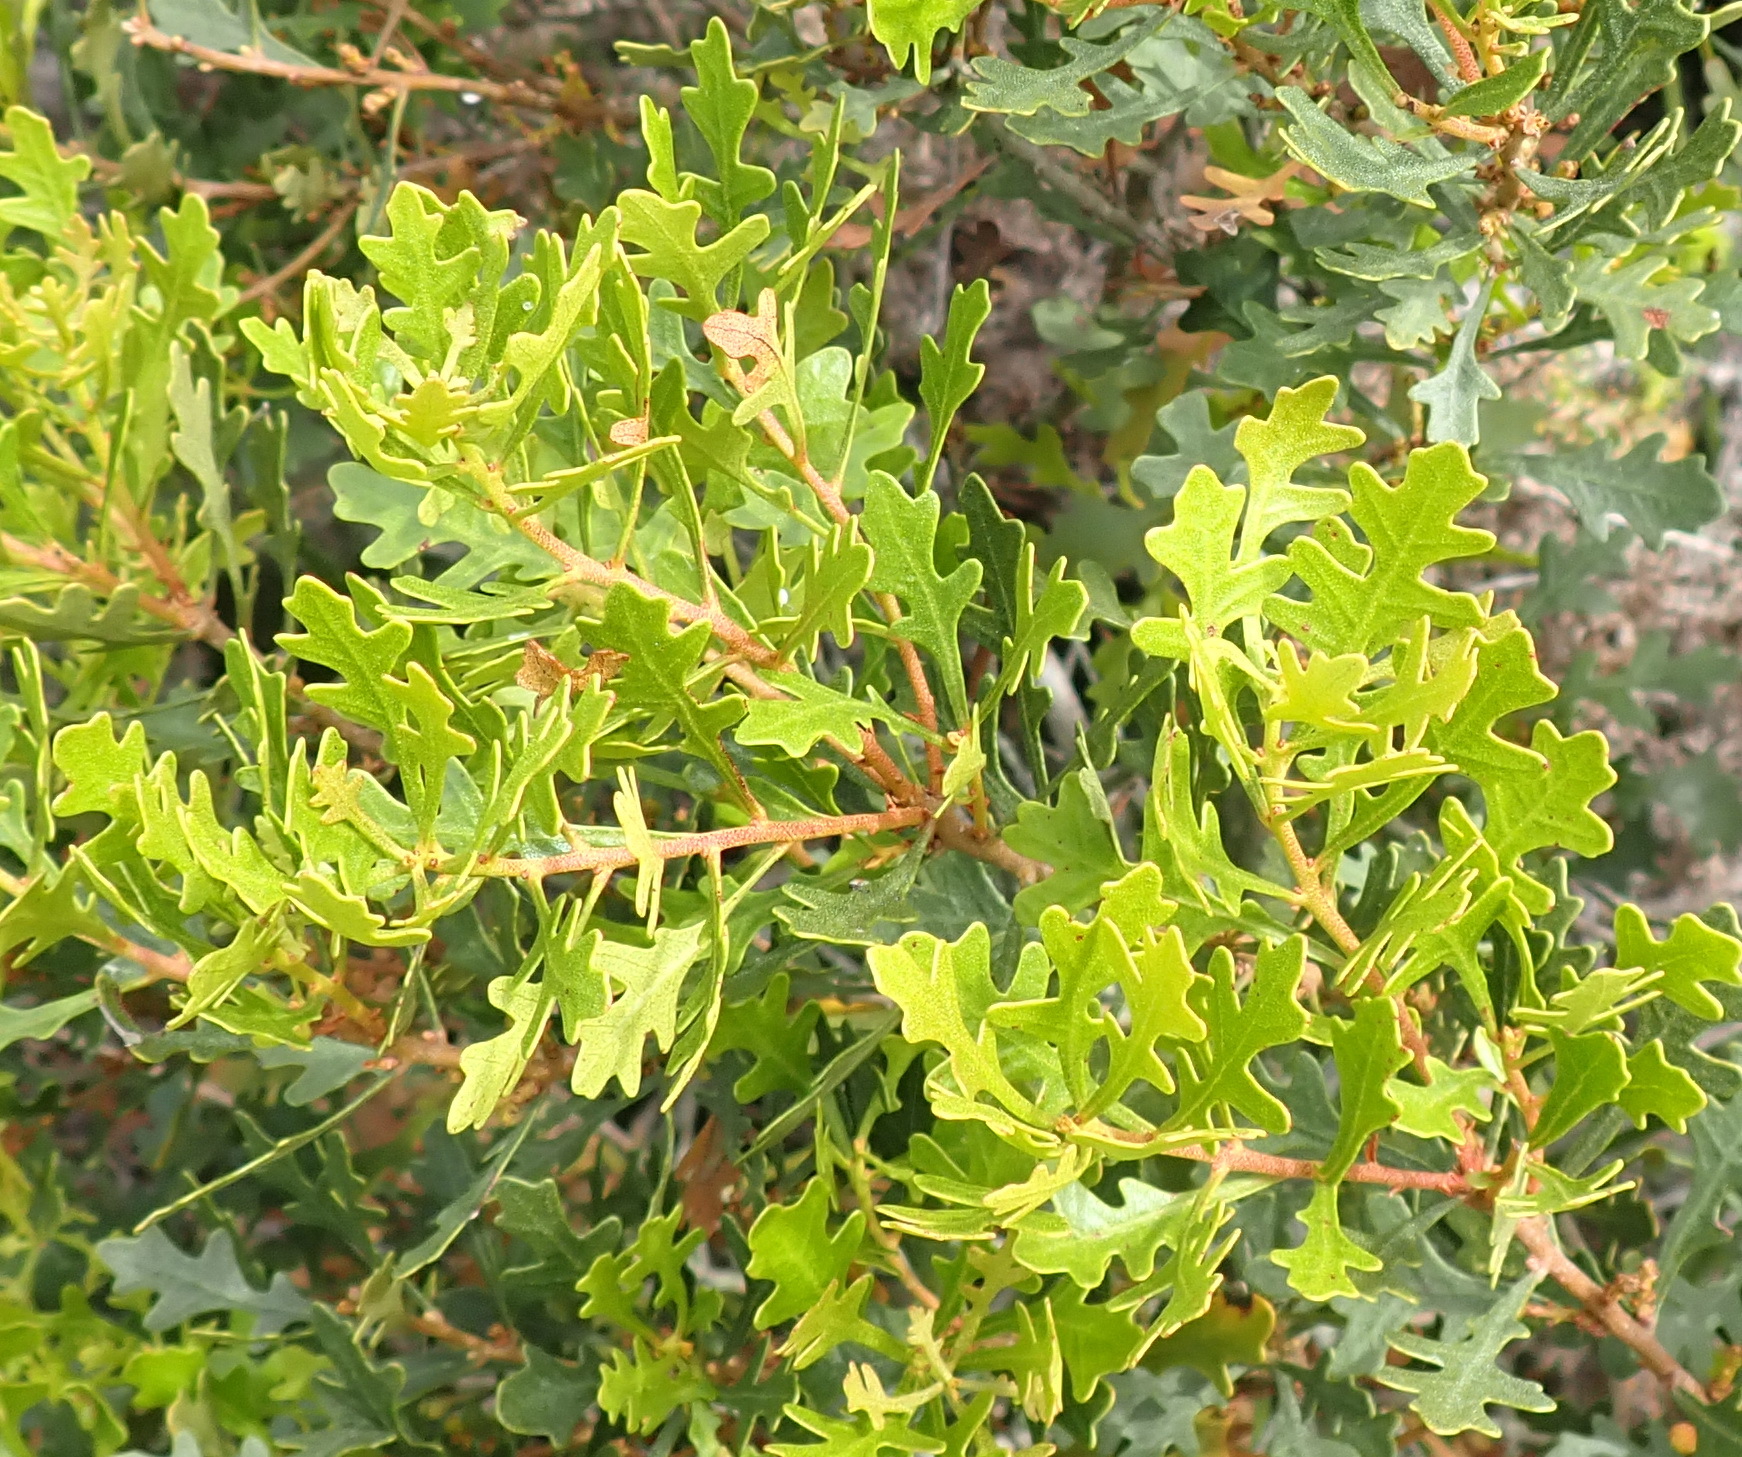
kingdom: Plantae
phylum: Tracheophyta
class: Magnoliopsida
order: Fagales
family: Myricaceae
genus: Morella
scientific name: Morella quercifolia
